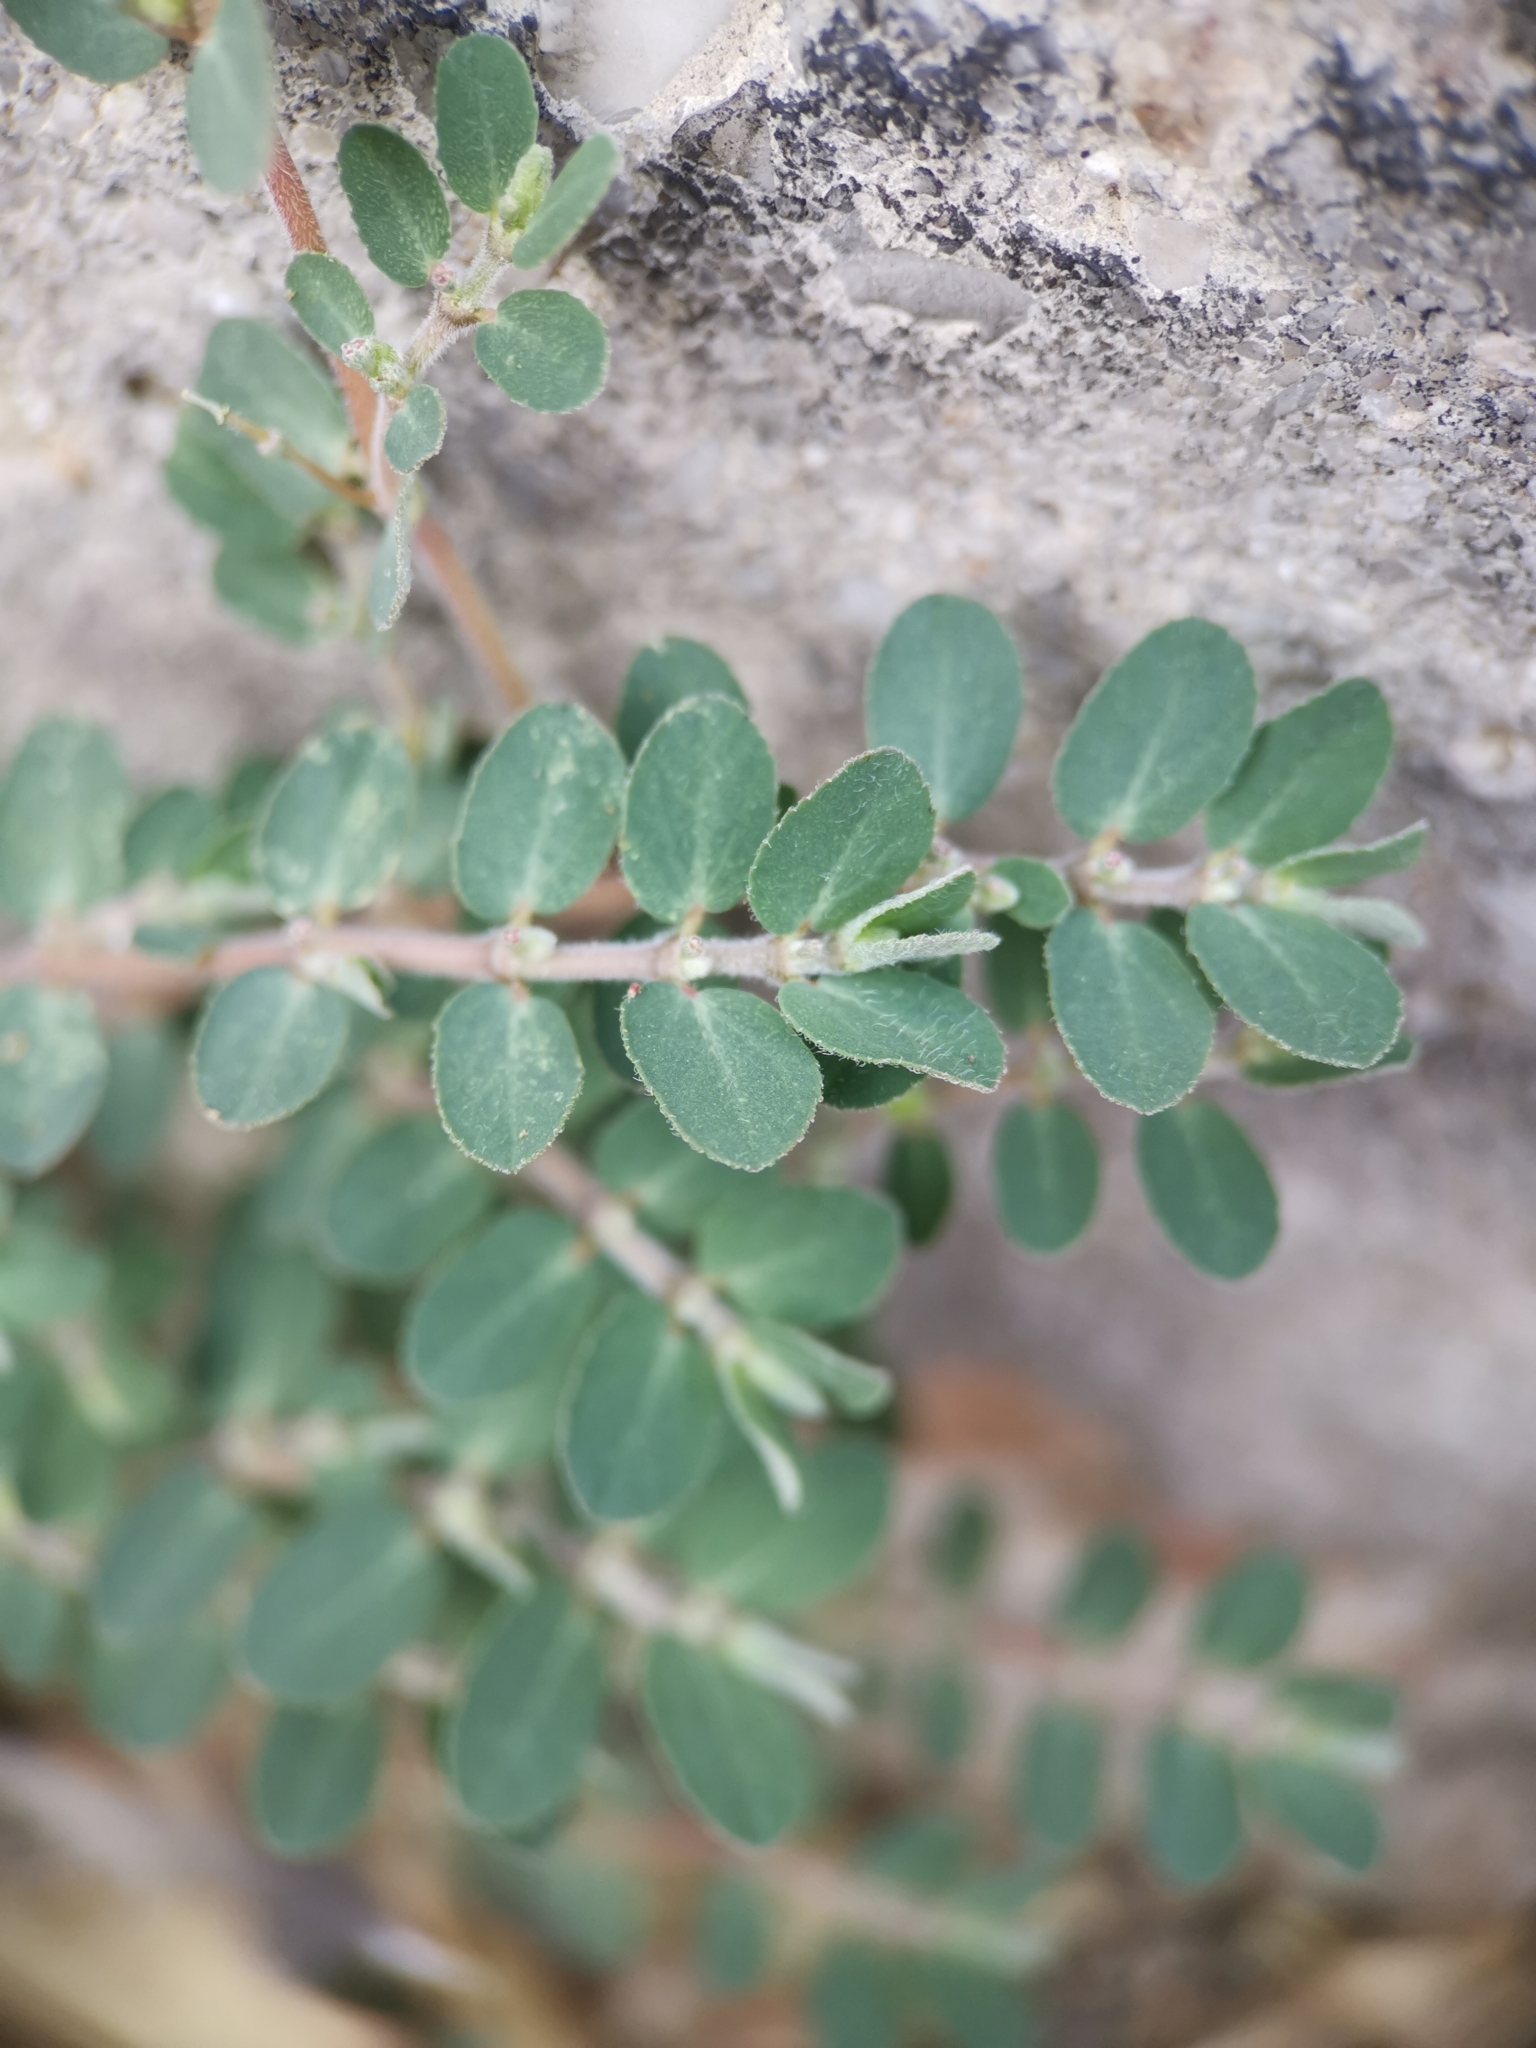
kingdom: Plantae
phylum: Tracheophyta
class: Magnoliopsida
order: Malpighiales
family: Euphorbiaceae
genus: Euphorbia
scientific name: Euphorbia prostrata
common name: Prostrate sandmat
